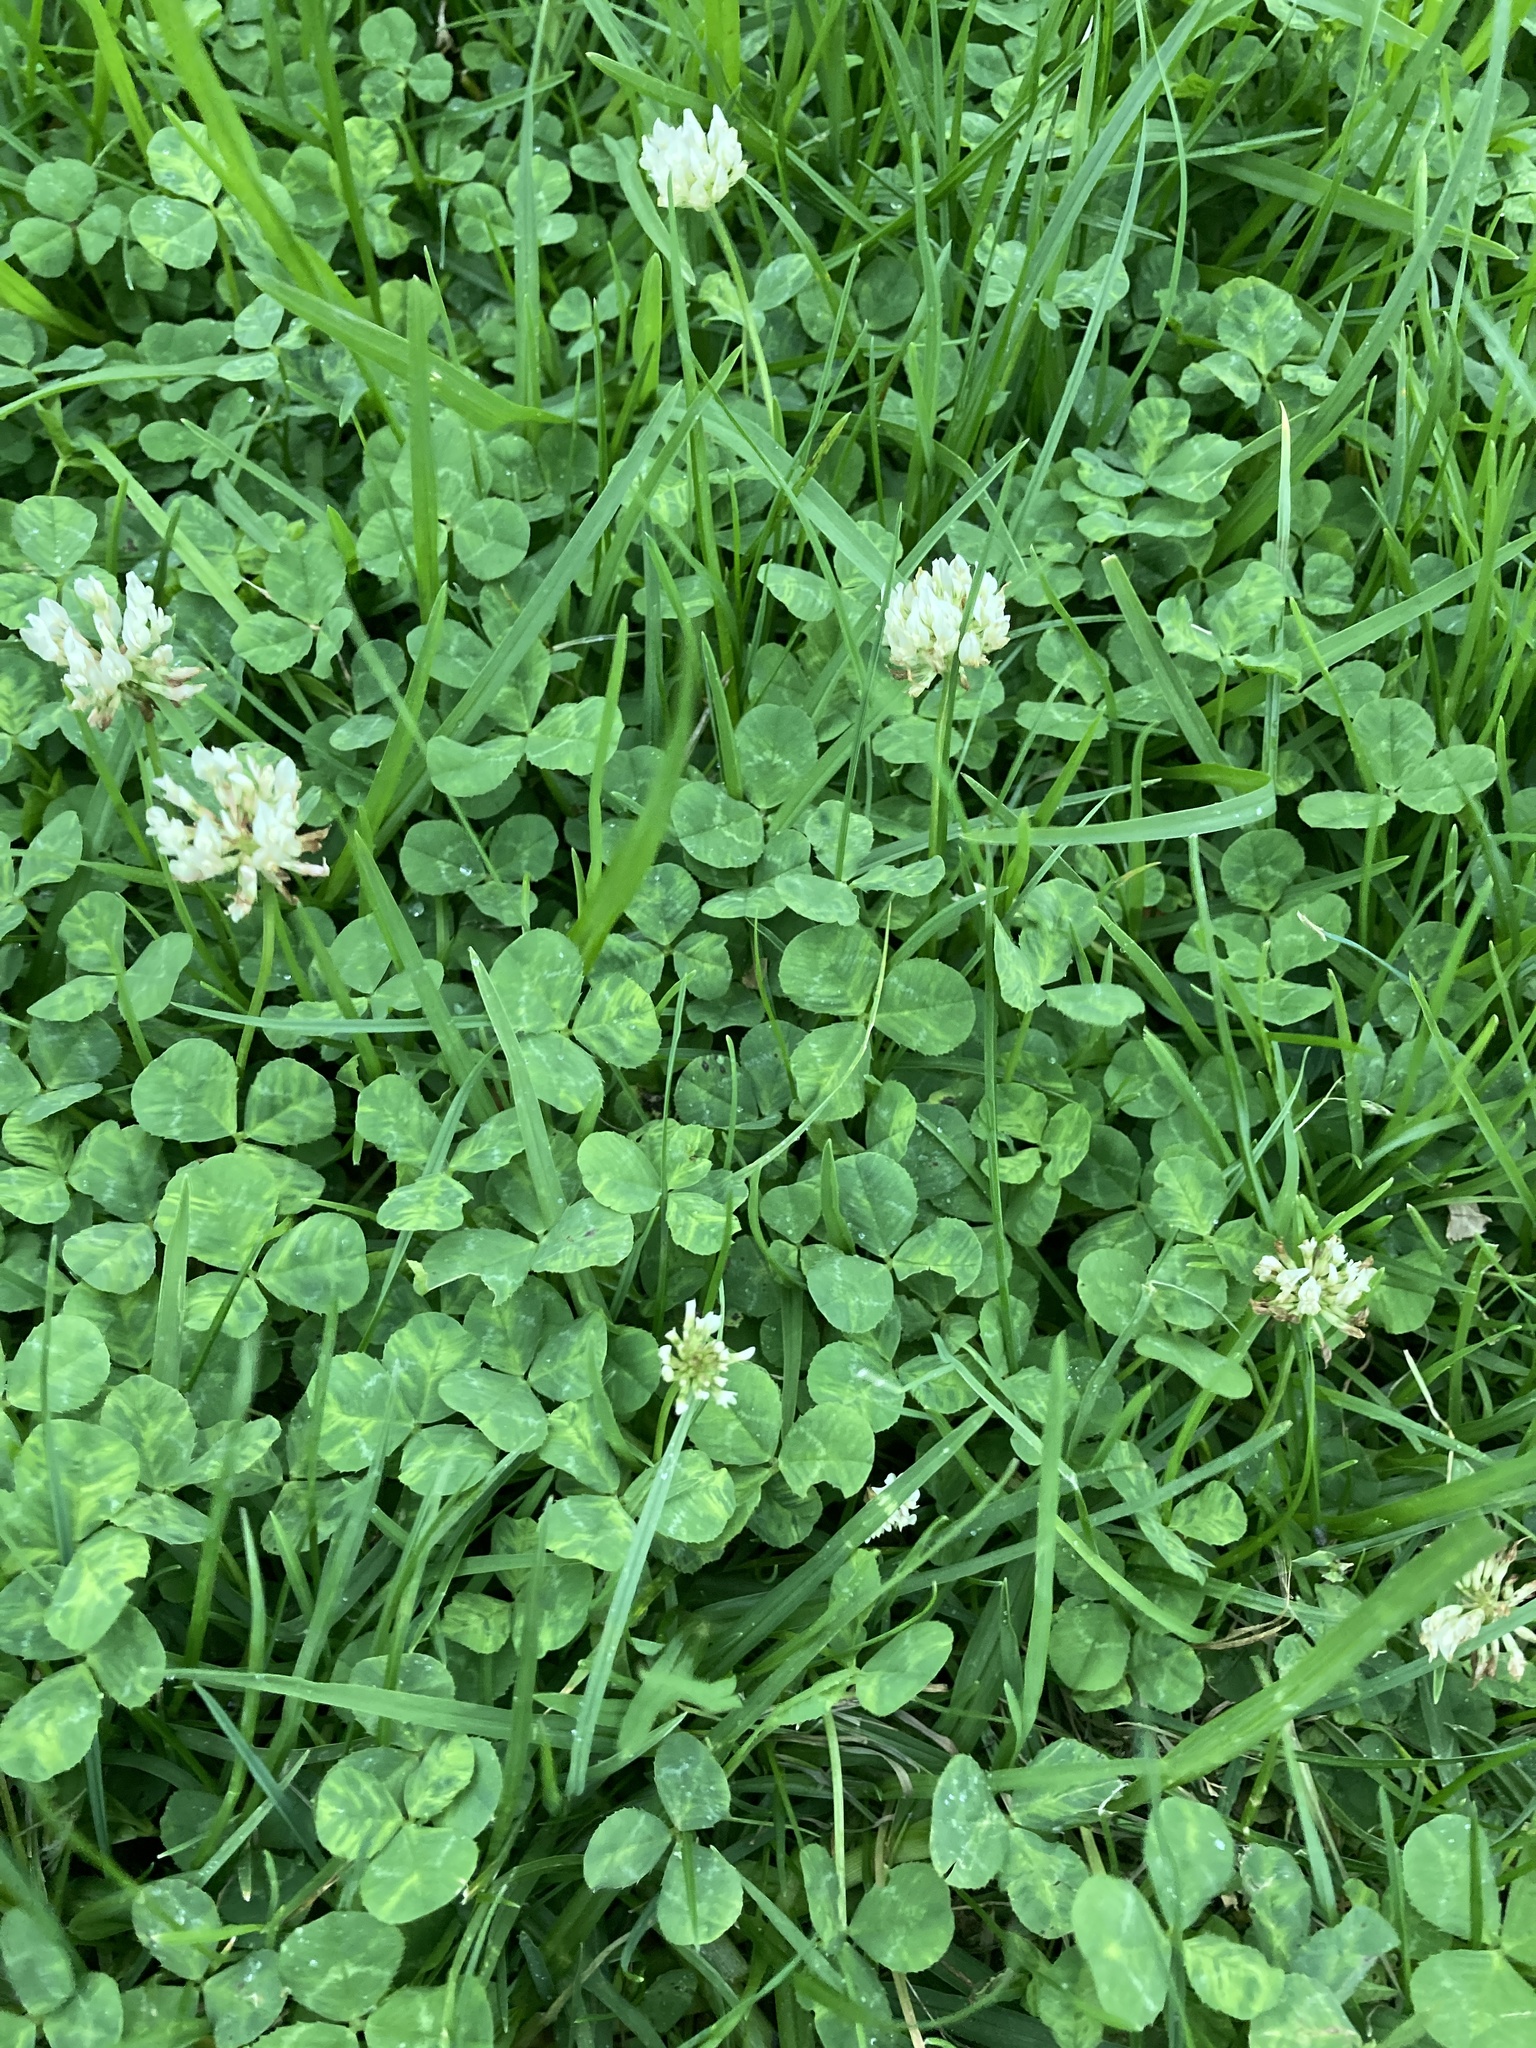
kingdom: Plantae
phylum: Tracheophyta
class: Magnoliopsida
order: Fabales
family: Fabaceae
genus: Trifolium
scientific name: Trifolium repens
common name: White clover
